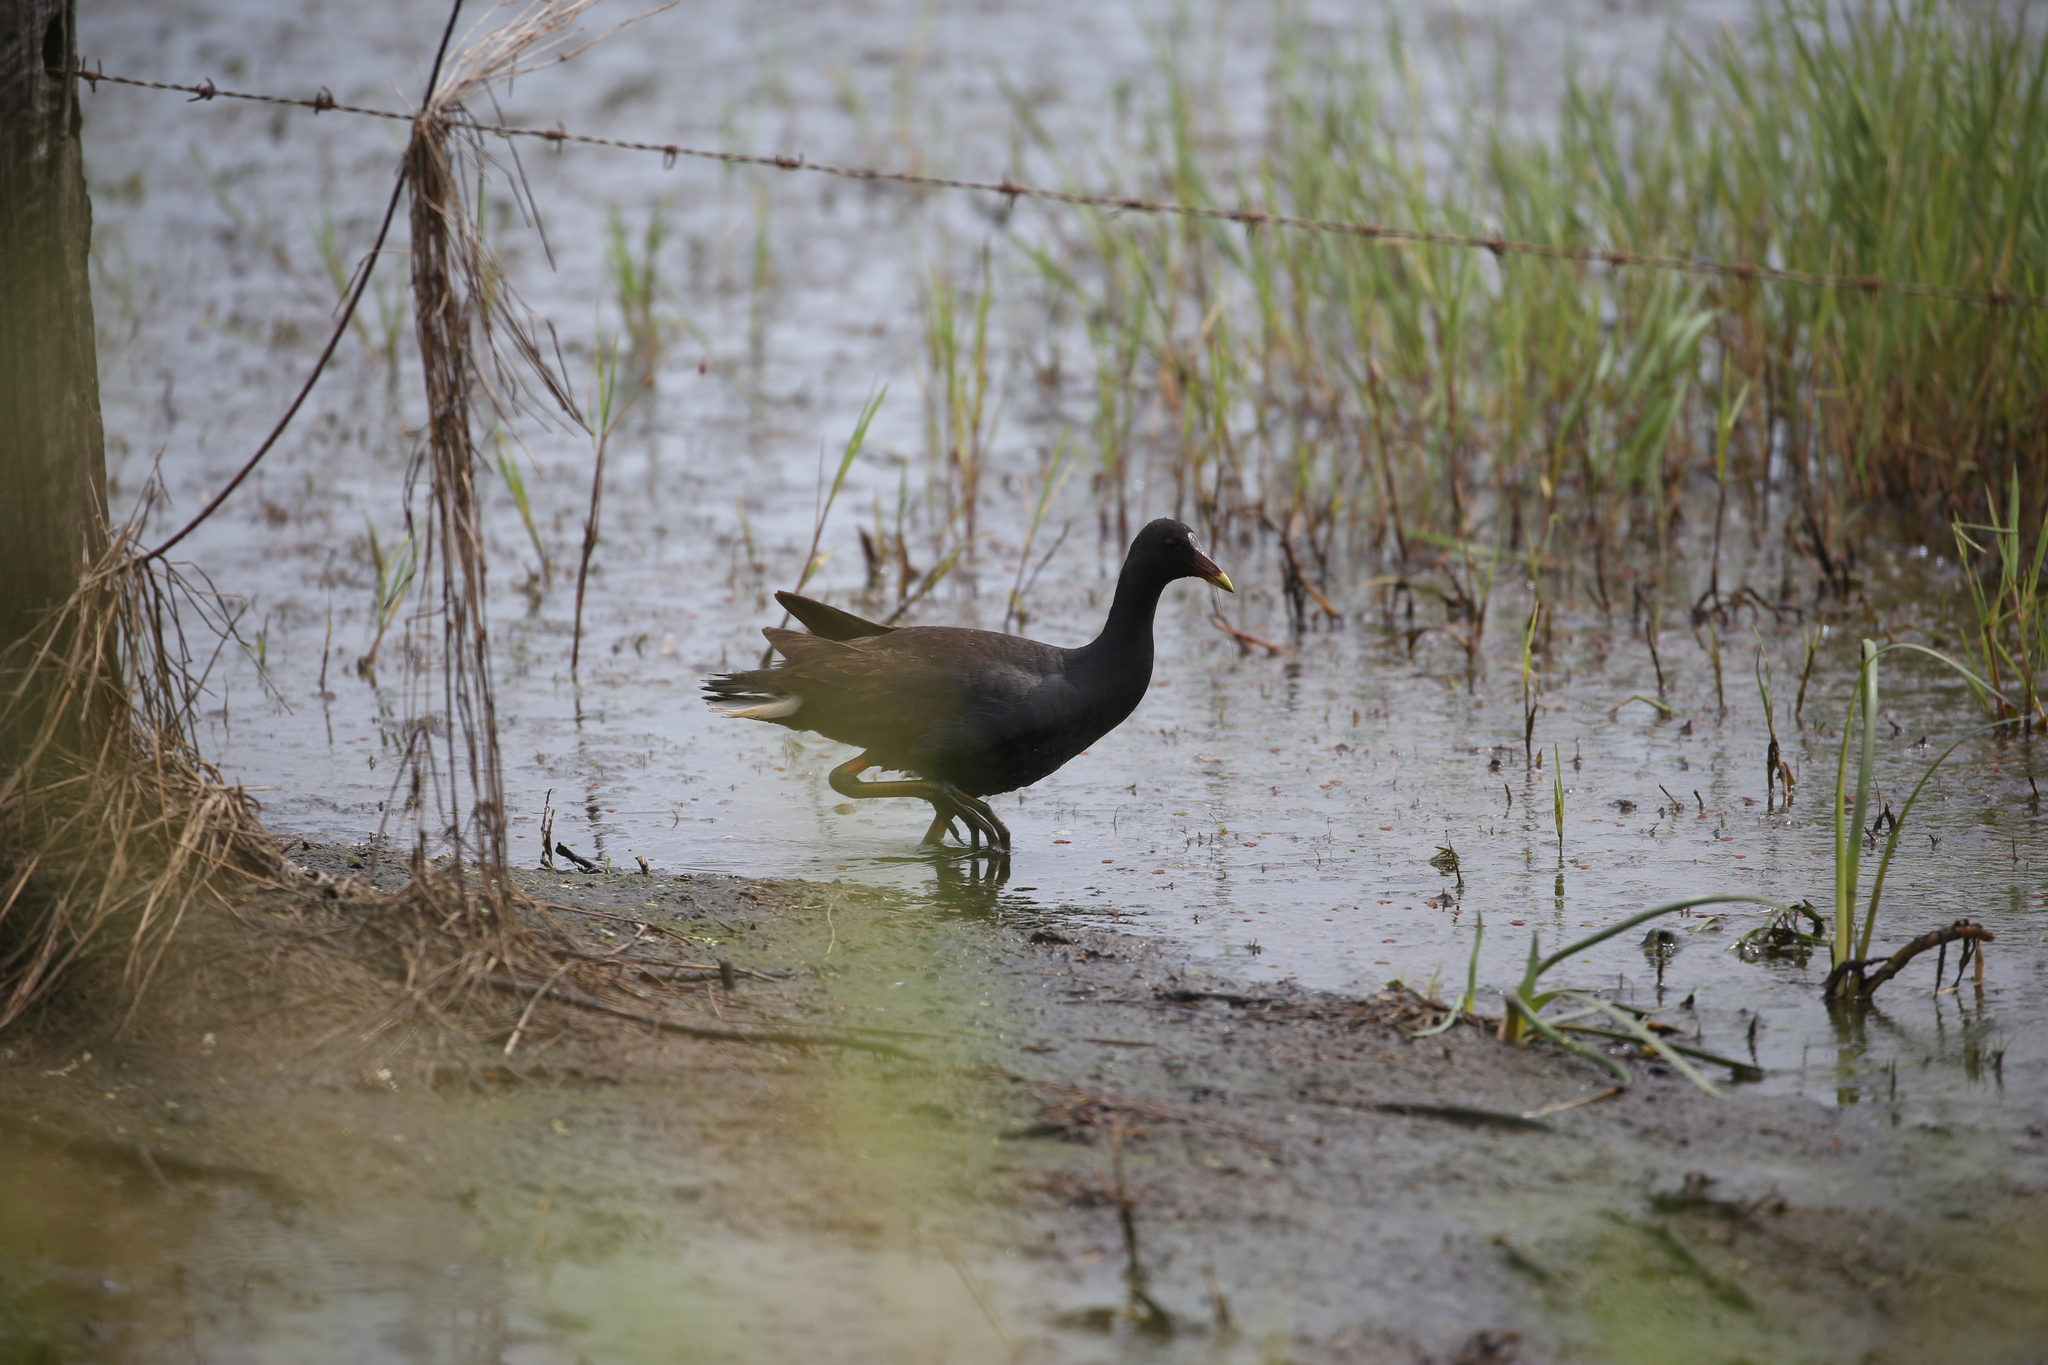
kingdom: Animalia
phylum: Chordata
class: Aves
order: Gruiformes
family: Rallidae
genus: Gallinula
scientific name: Gallinula tenebrosa
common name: Dusky moorhen
